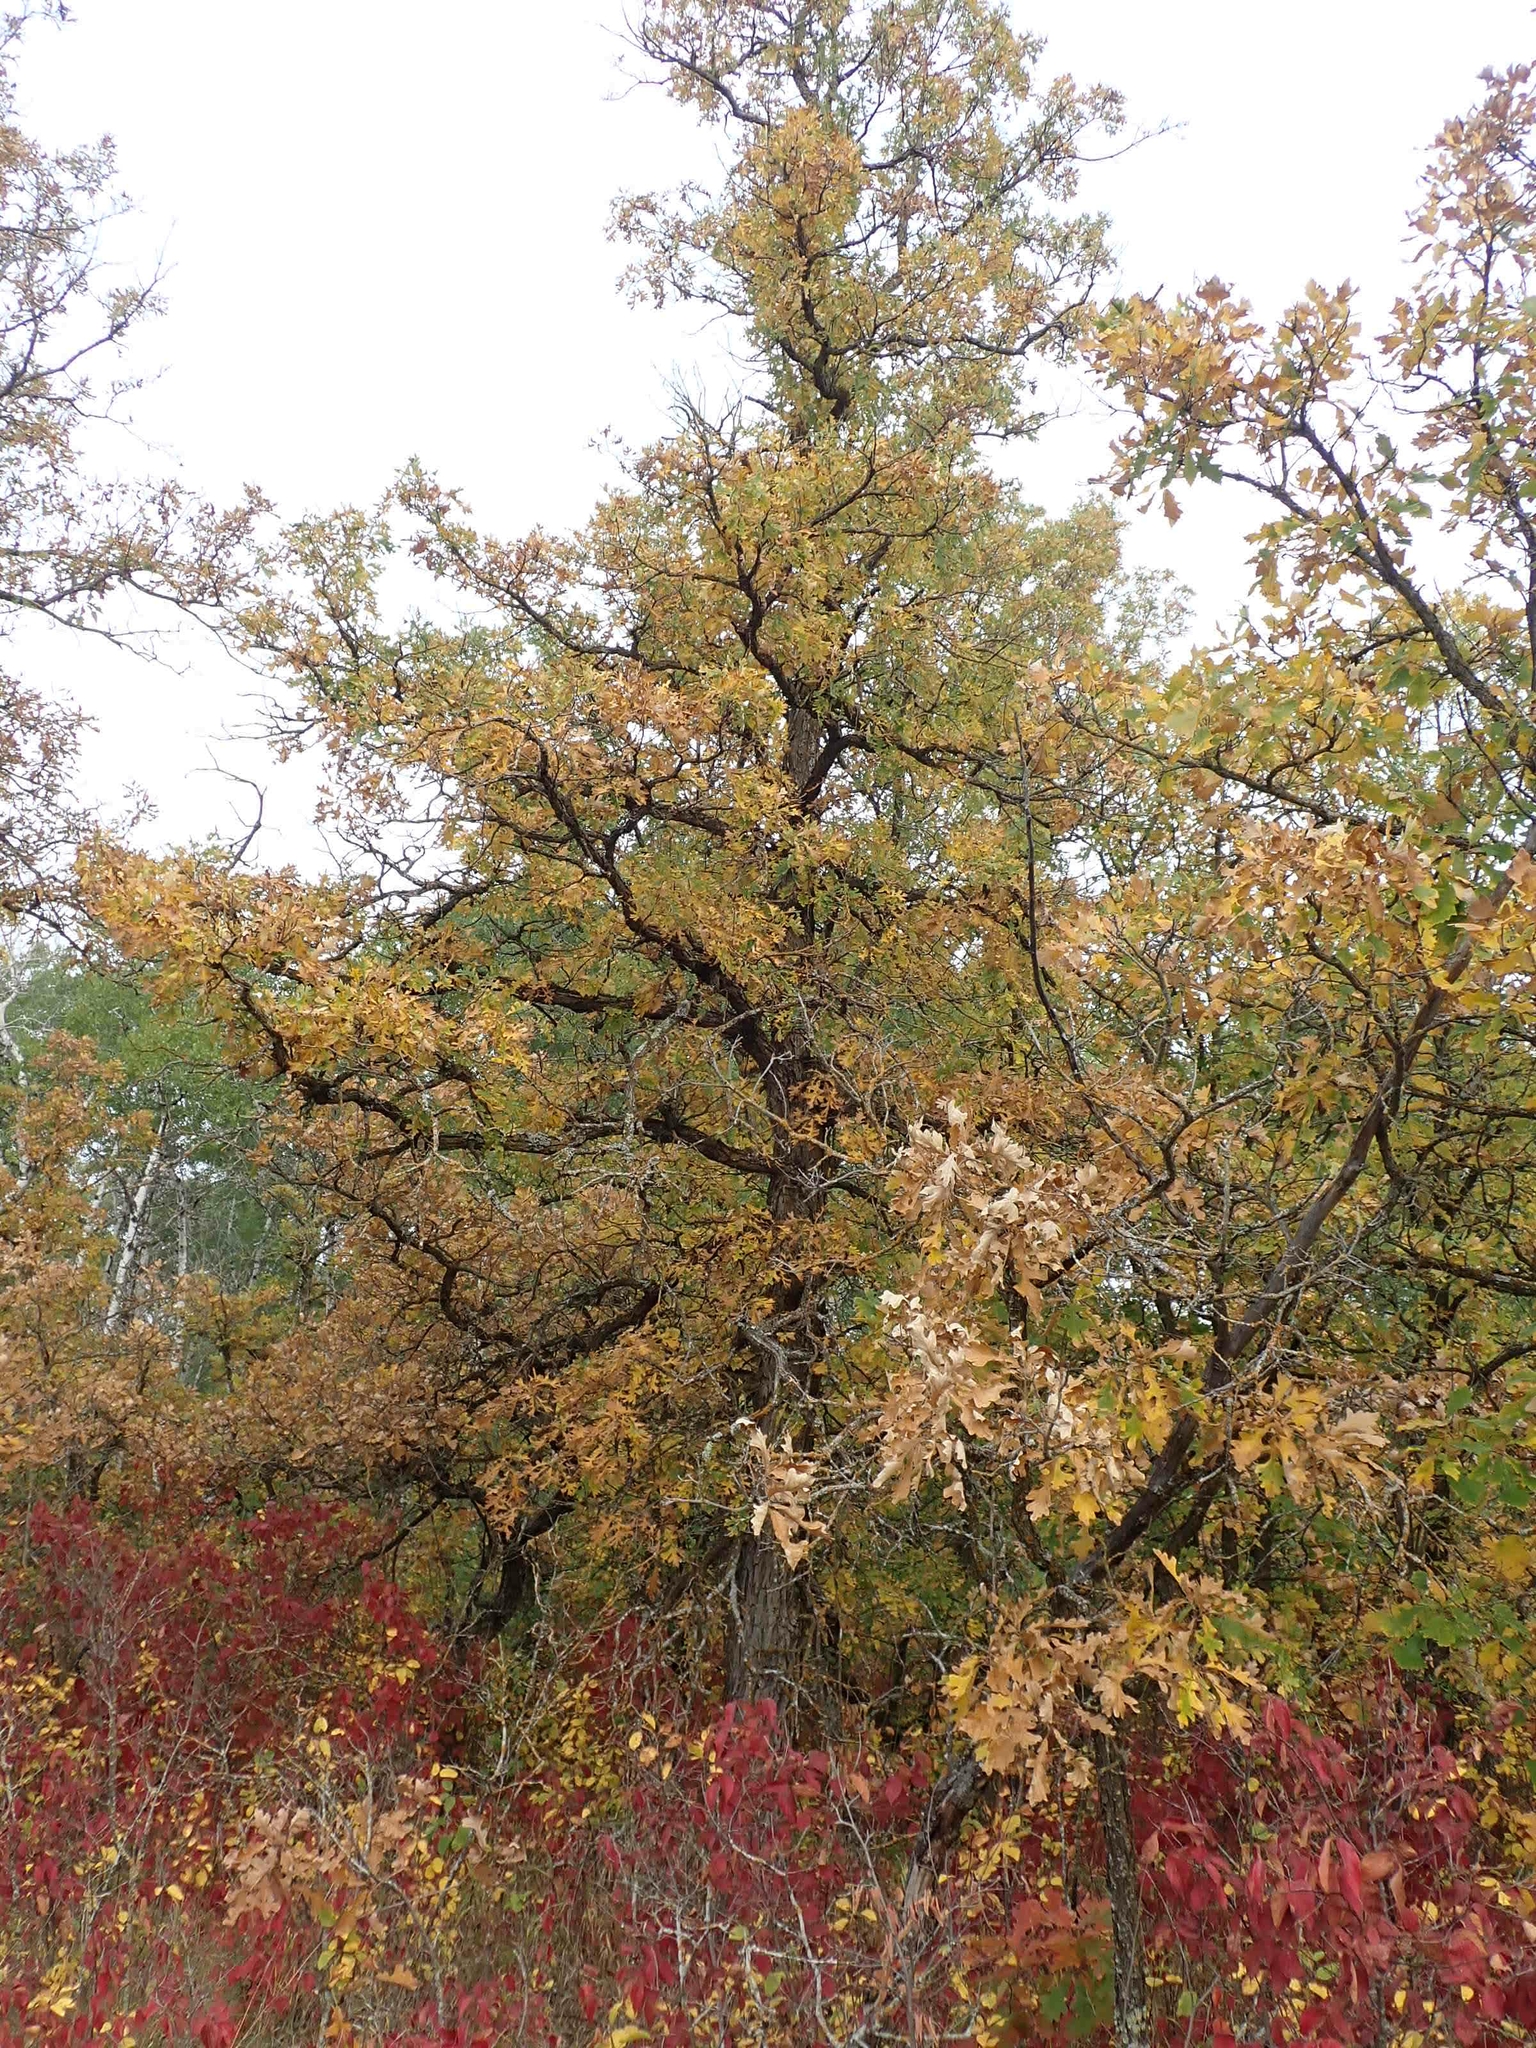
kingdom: Plantae
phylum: Tracheophyta
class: Magnoliopsida
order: Fagales
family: Fagaceae
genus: Quercus
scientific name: Quercus macrocarpa
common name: Bur oak
